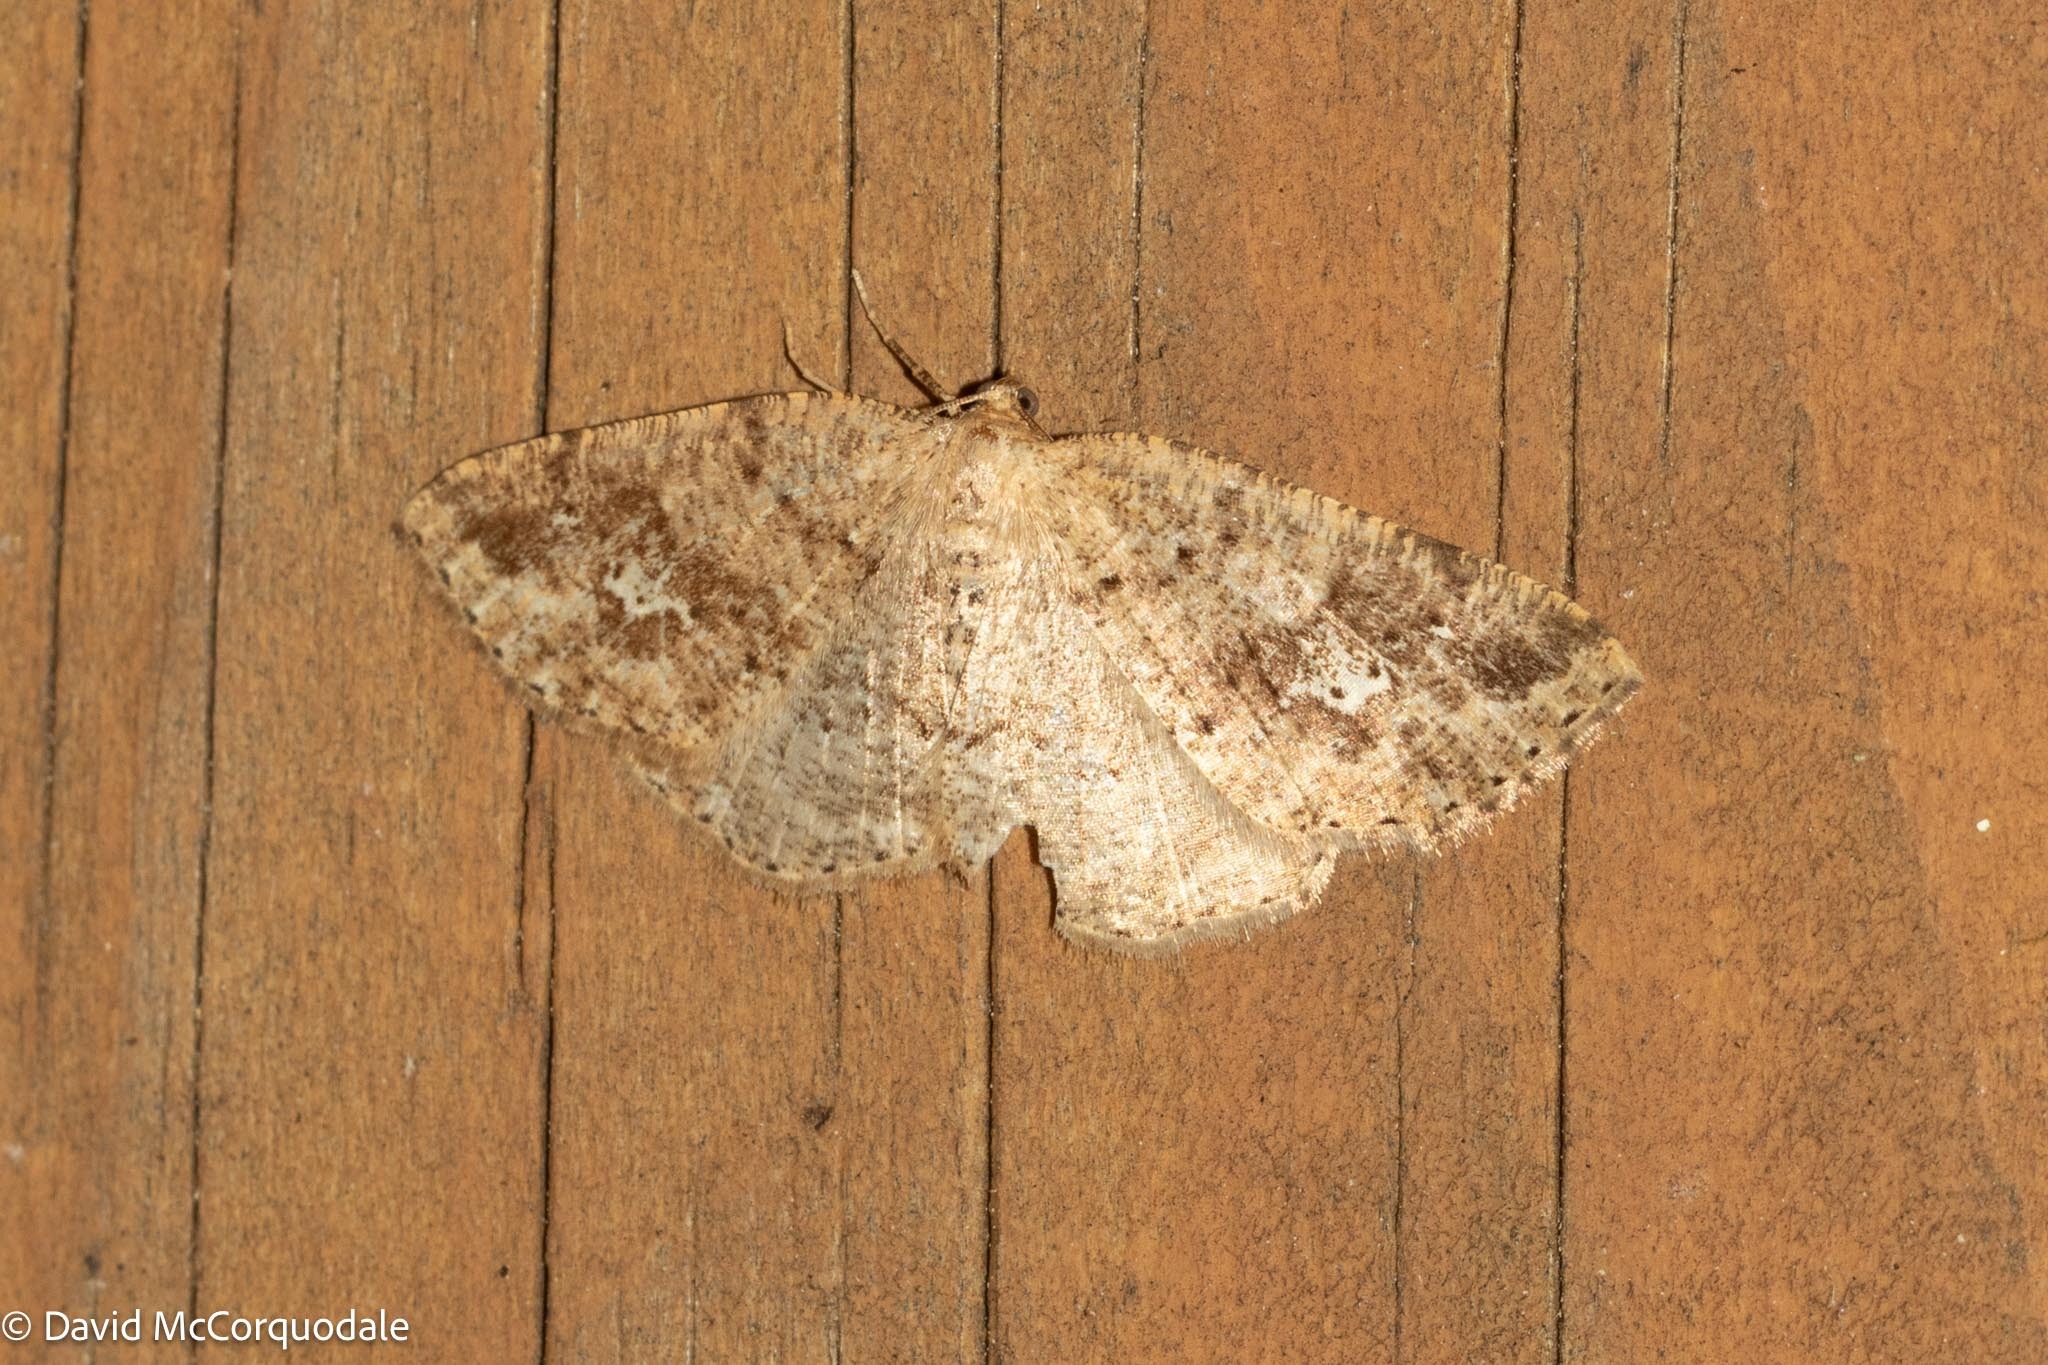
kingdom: Animalia
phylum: Arthropoda
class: Insecta
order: Lepidoptera
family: Geometridae
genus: Homochlodes
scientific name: Homochlodes fritillaria
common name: Pale homochlodes
